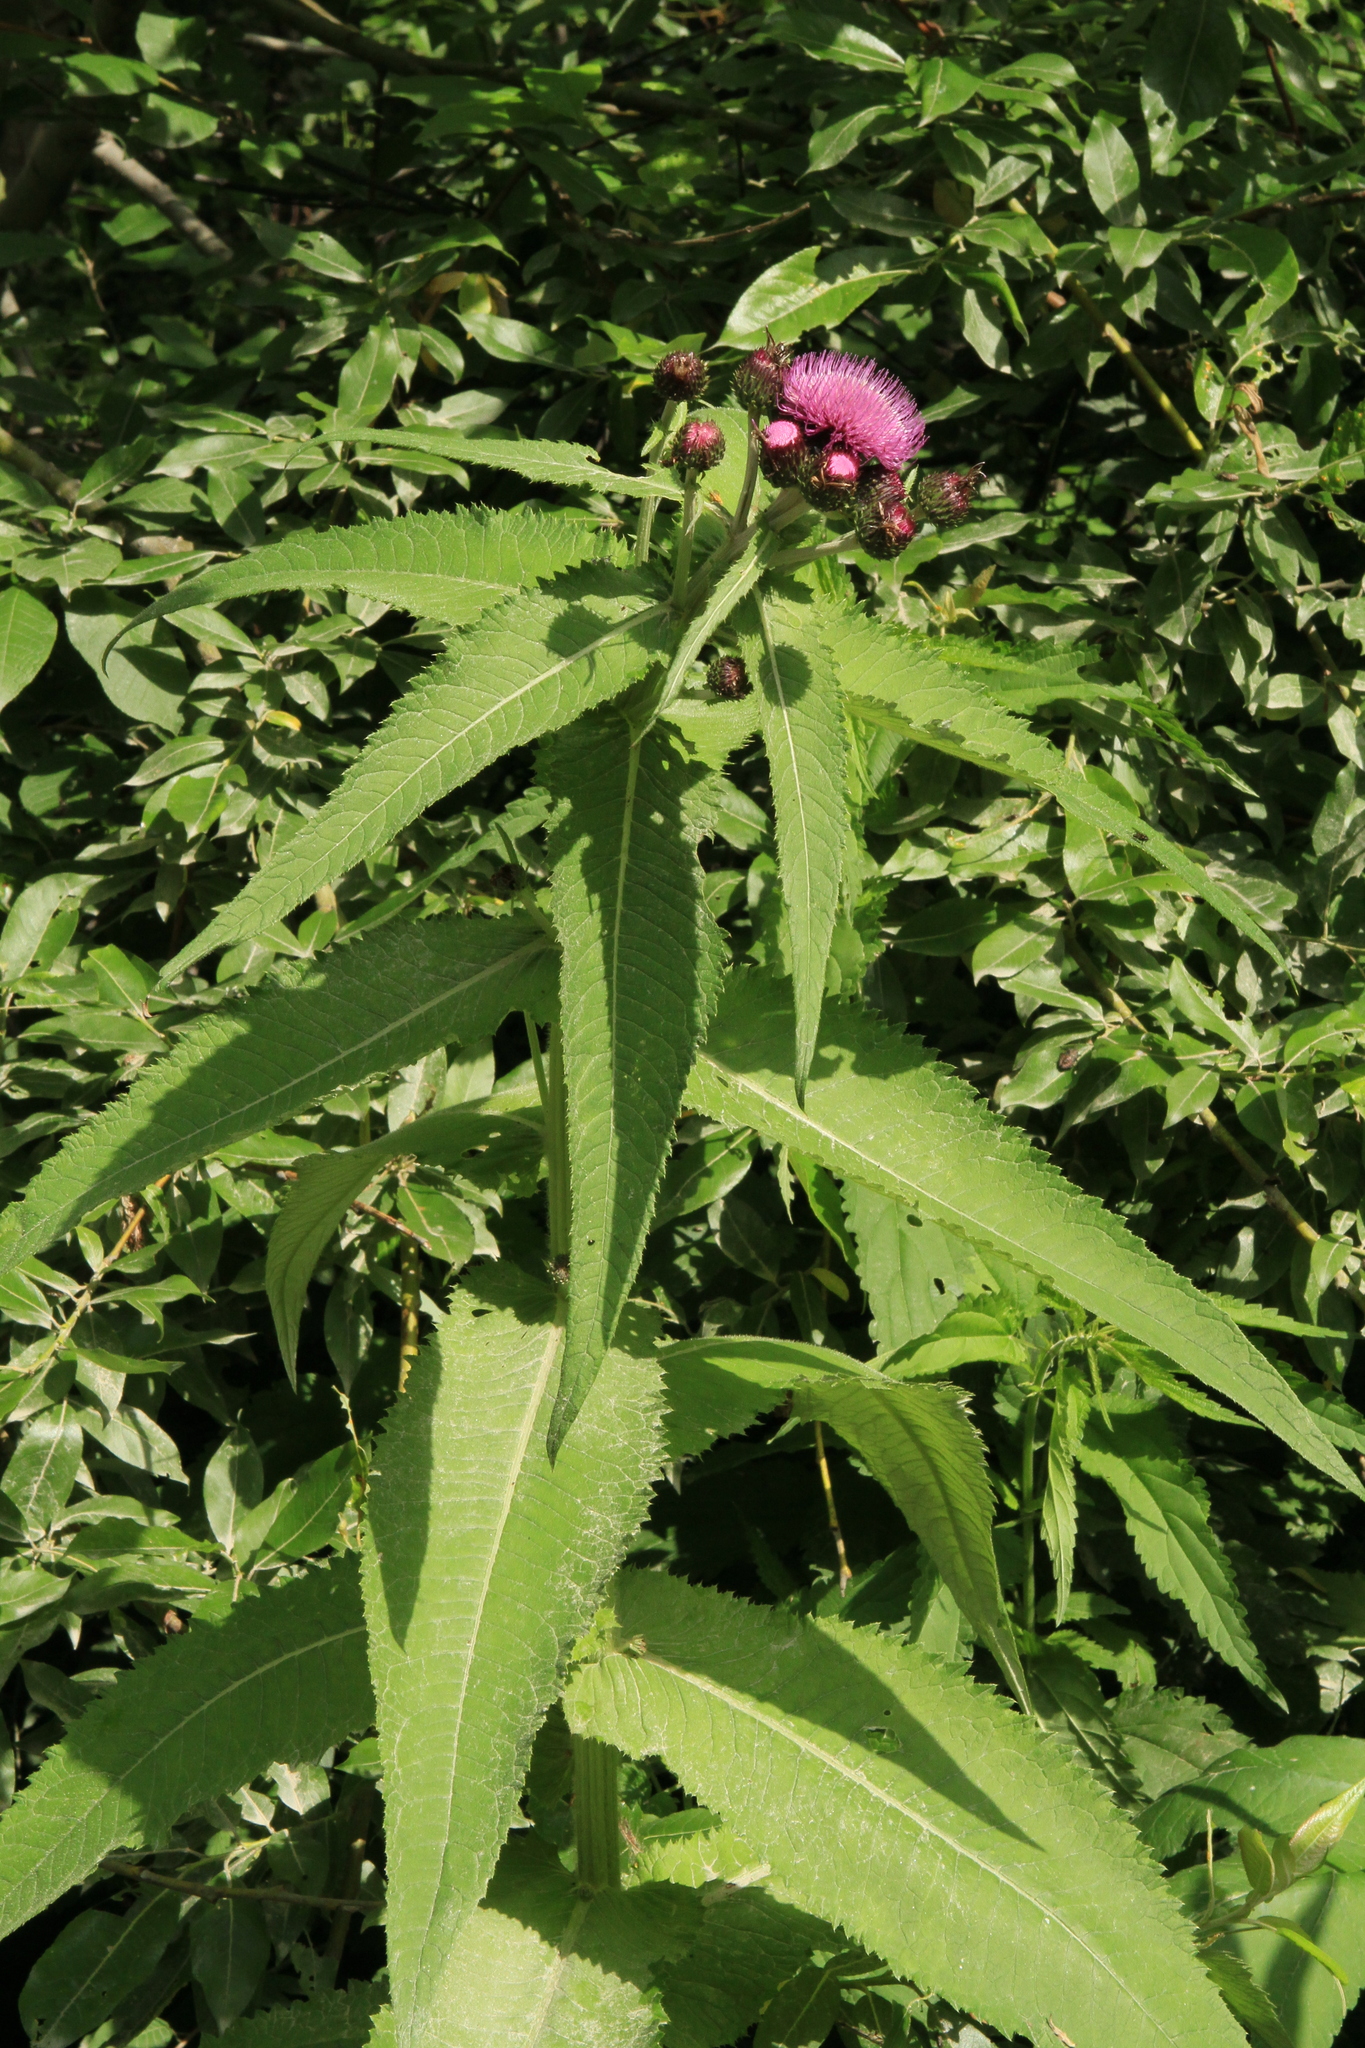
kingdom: Plantae
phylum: Tracheophyta
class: Magnoliopsida
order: Asterales
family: Asteraceae
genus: Cirsium
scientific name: Cirsium helenioides
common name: Melancholy thistle
